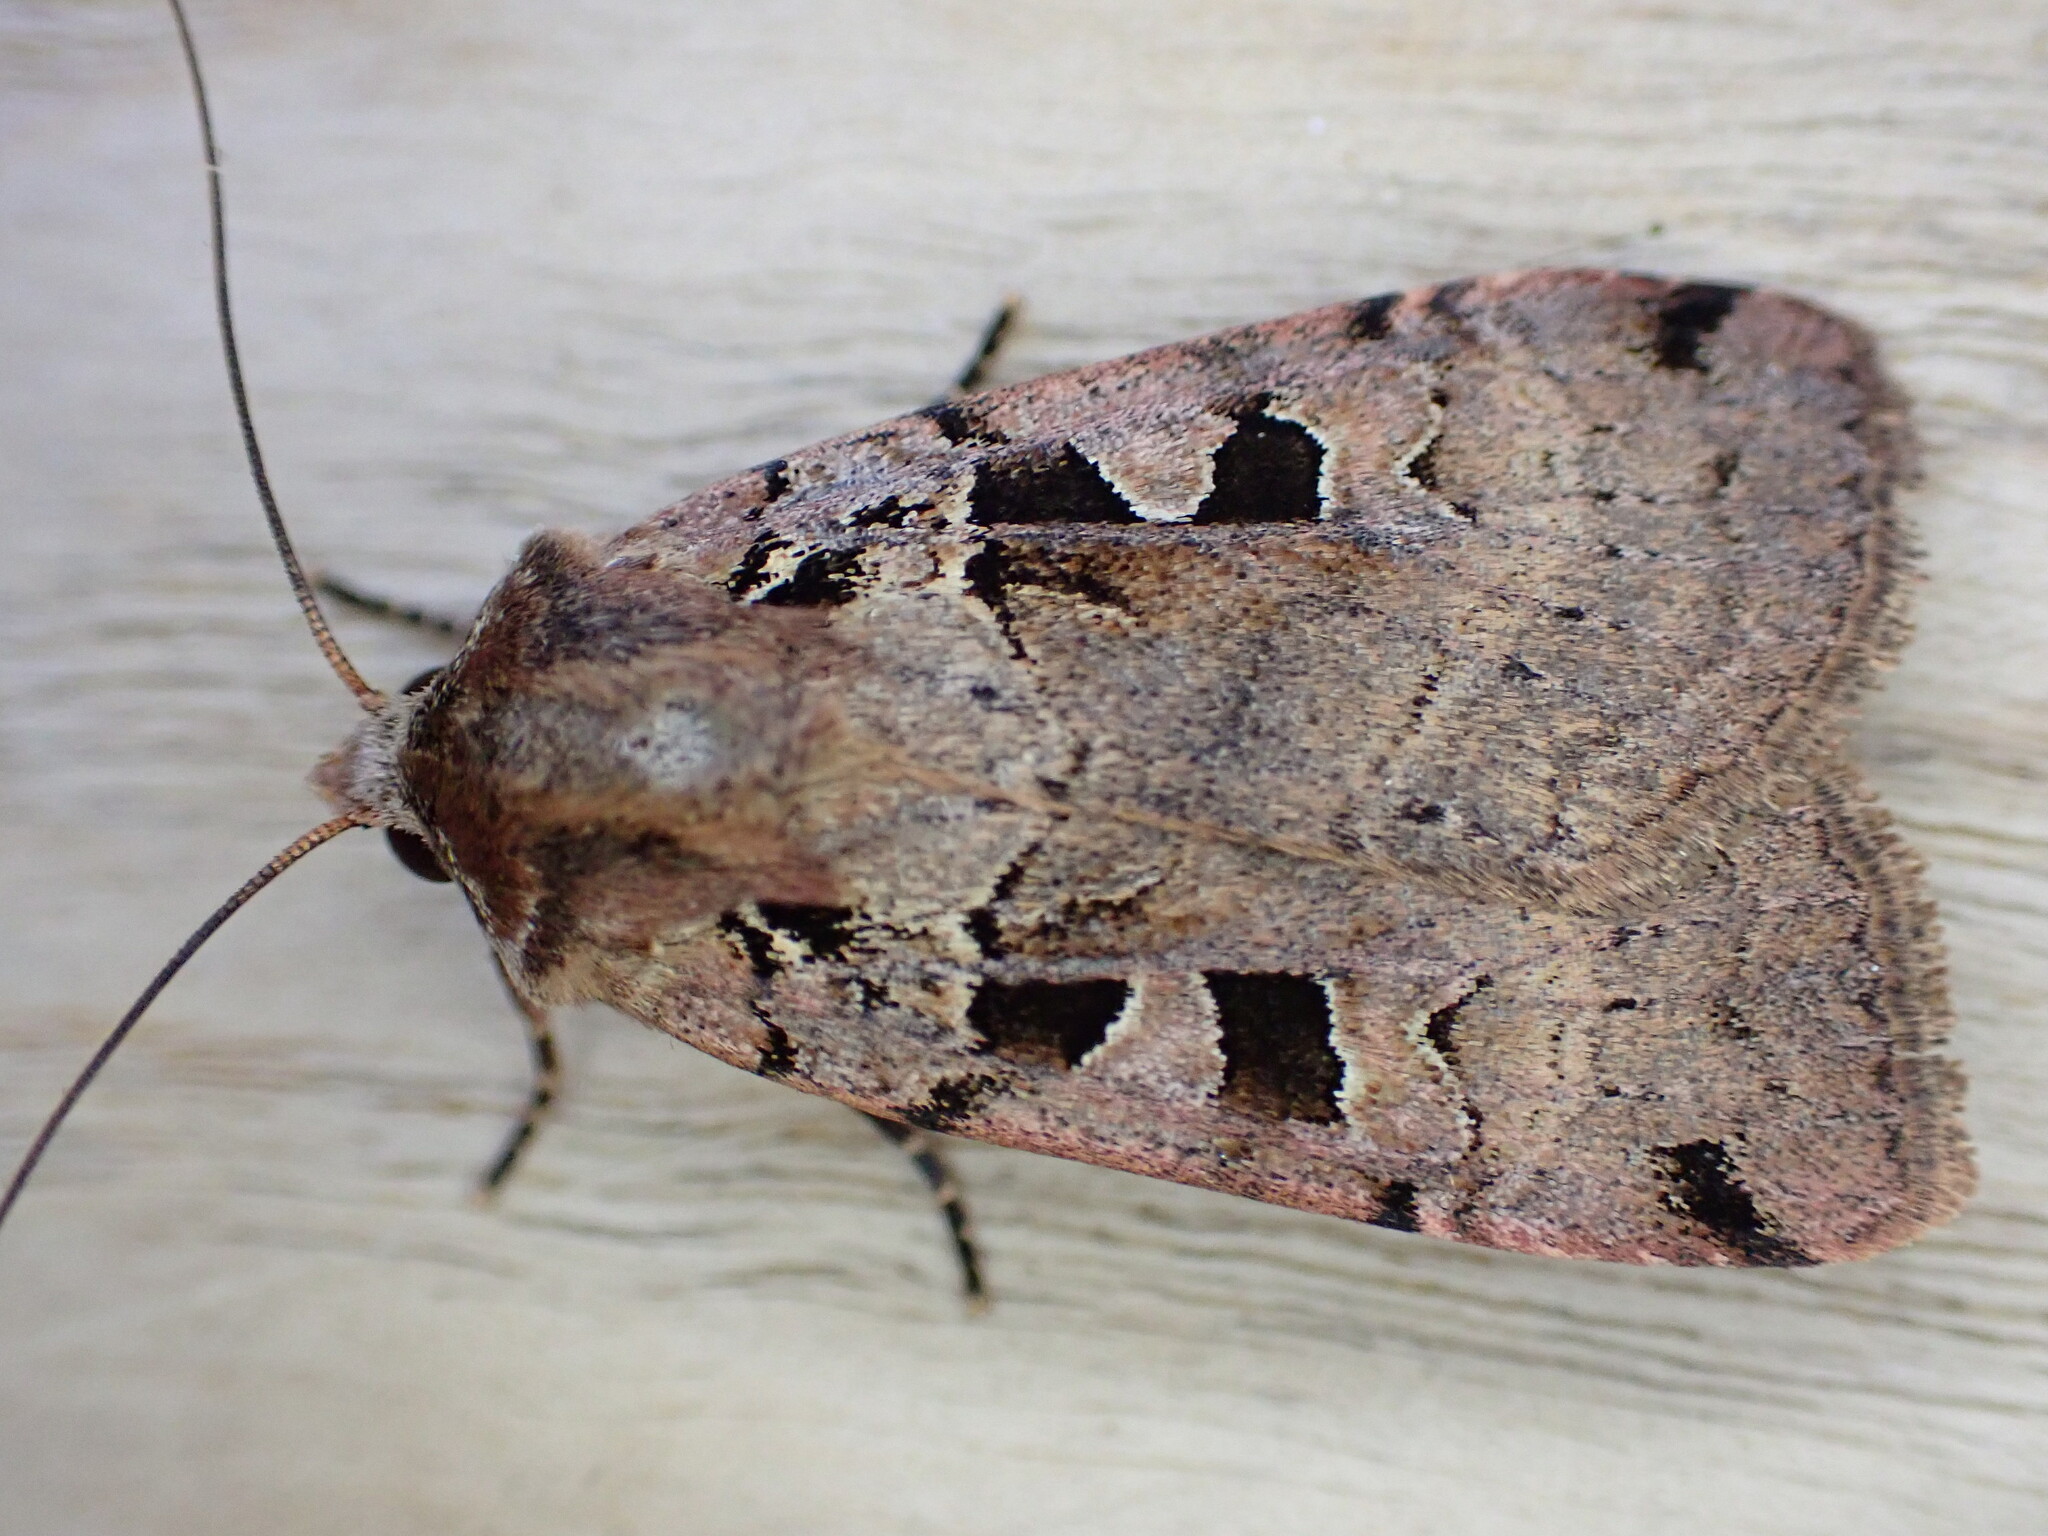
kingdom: Animalia
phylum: Arthropoda
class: Insecta
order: Lepidoptera
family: Noctuidae
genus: Xestia
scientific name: Xestia triangulum
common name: Double square-spot
